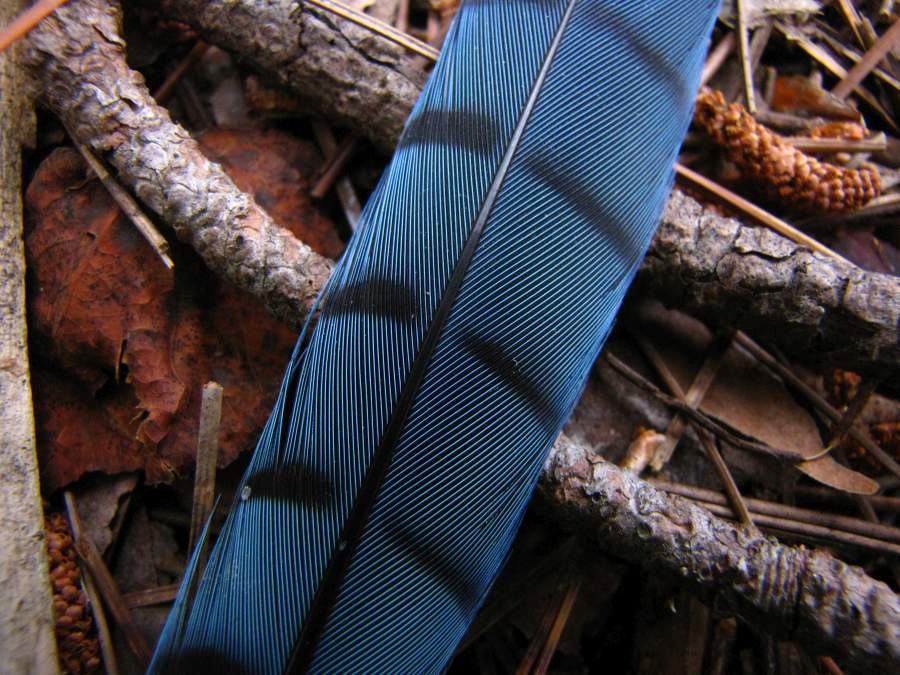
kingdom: Animalia
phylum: Chordata
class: Aves
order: Passeriformes
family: Corvidae
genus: Cyanocitta
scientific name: Cyanocitta cristata
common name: Blue jay
